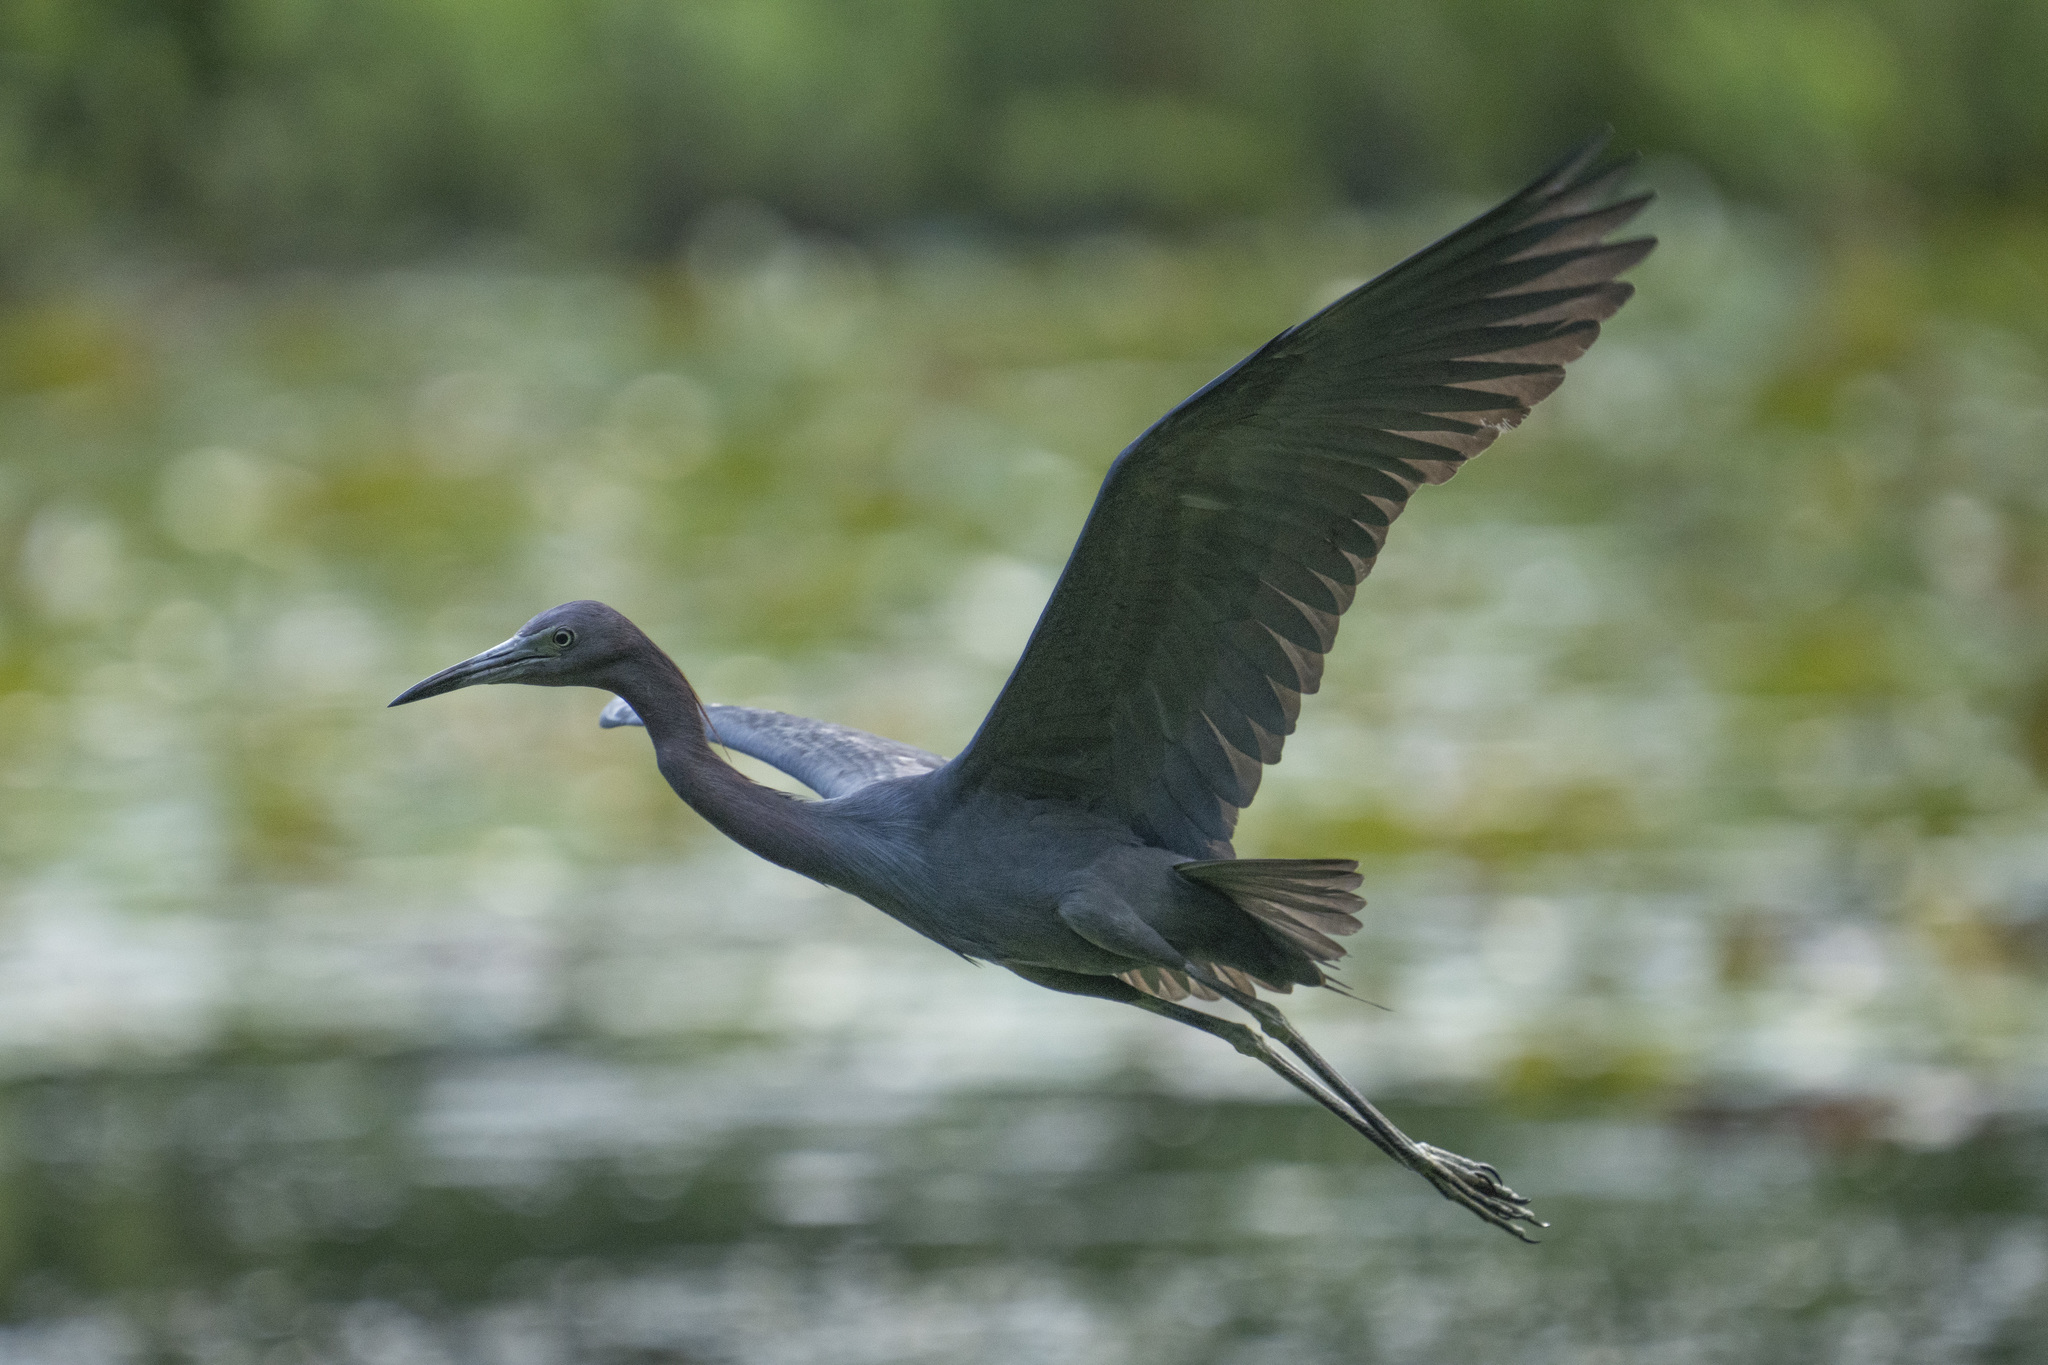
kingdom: Animalia
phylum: Chordata
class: Aves
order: Pelecaniformes
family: Ardeidae
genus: Egretta
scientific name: Egretta caerulea
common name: Little blue heron
